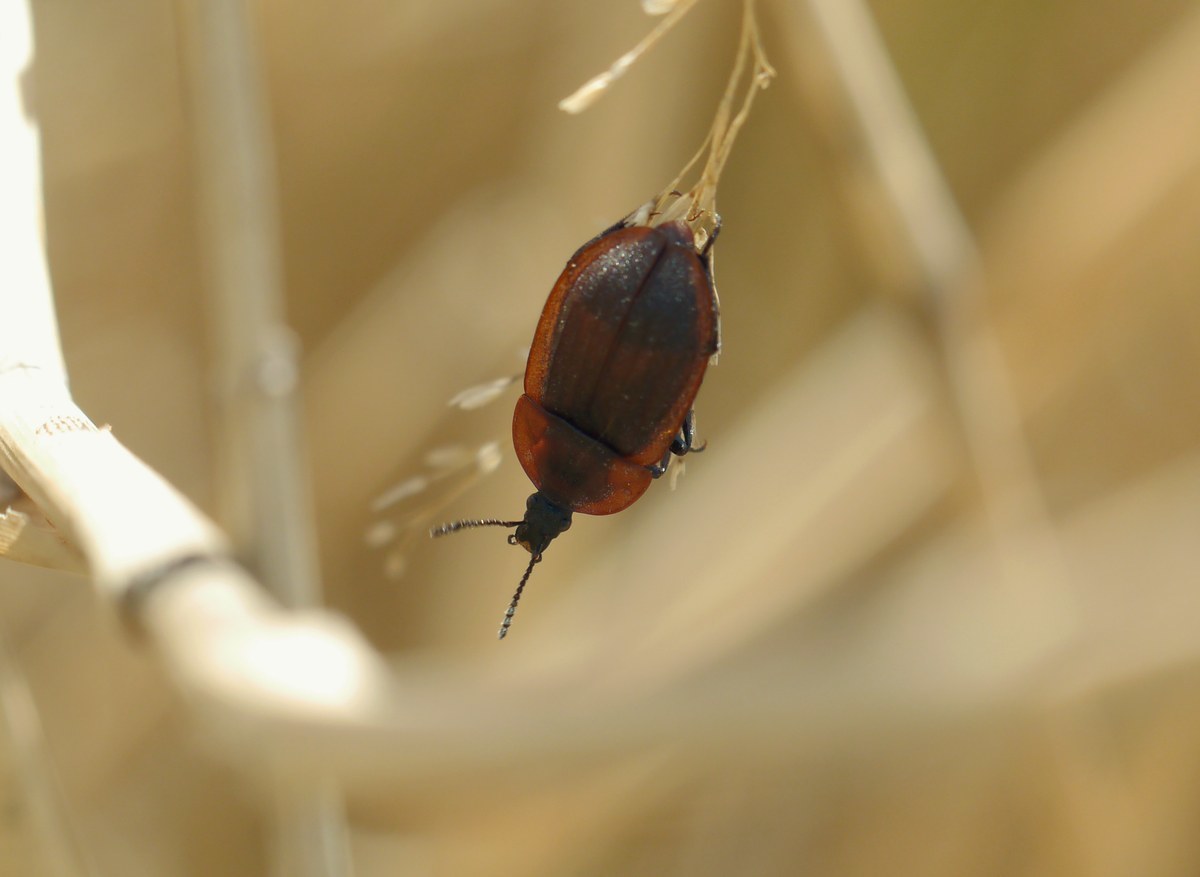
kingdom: Animalia
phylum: Arthropoda
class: Insecta
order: Coleoptera
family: Staphylinidae
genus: Silpha
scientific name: Silpha atrata
